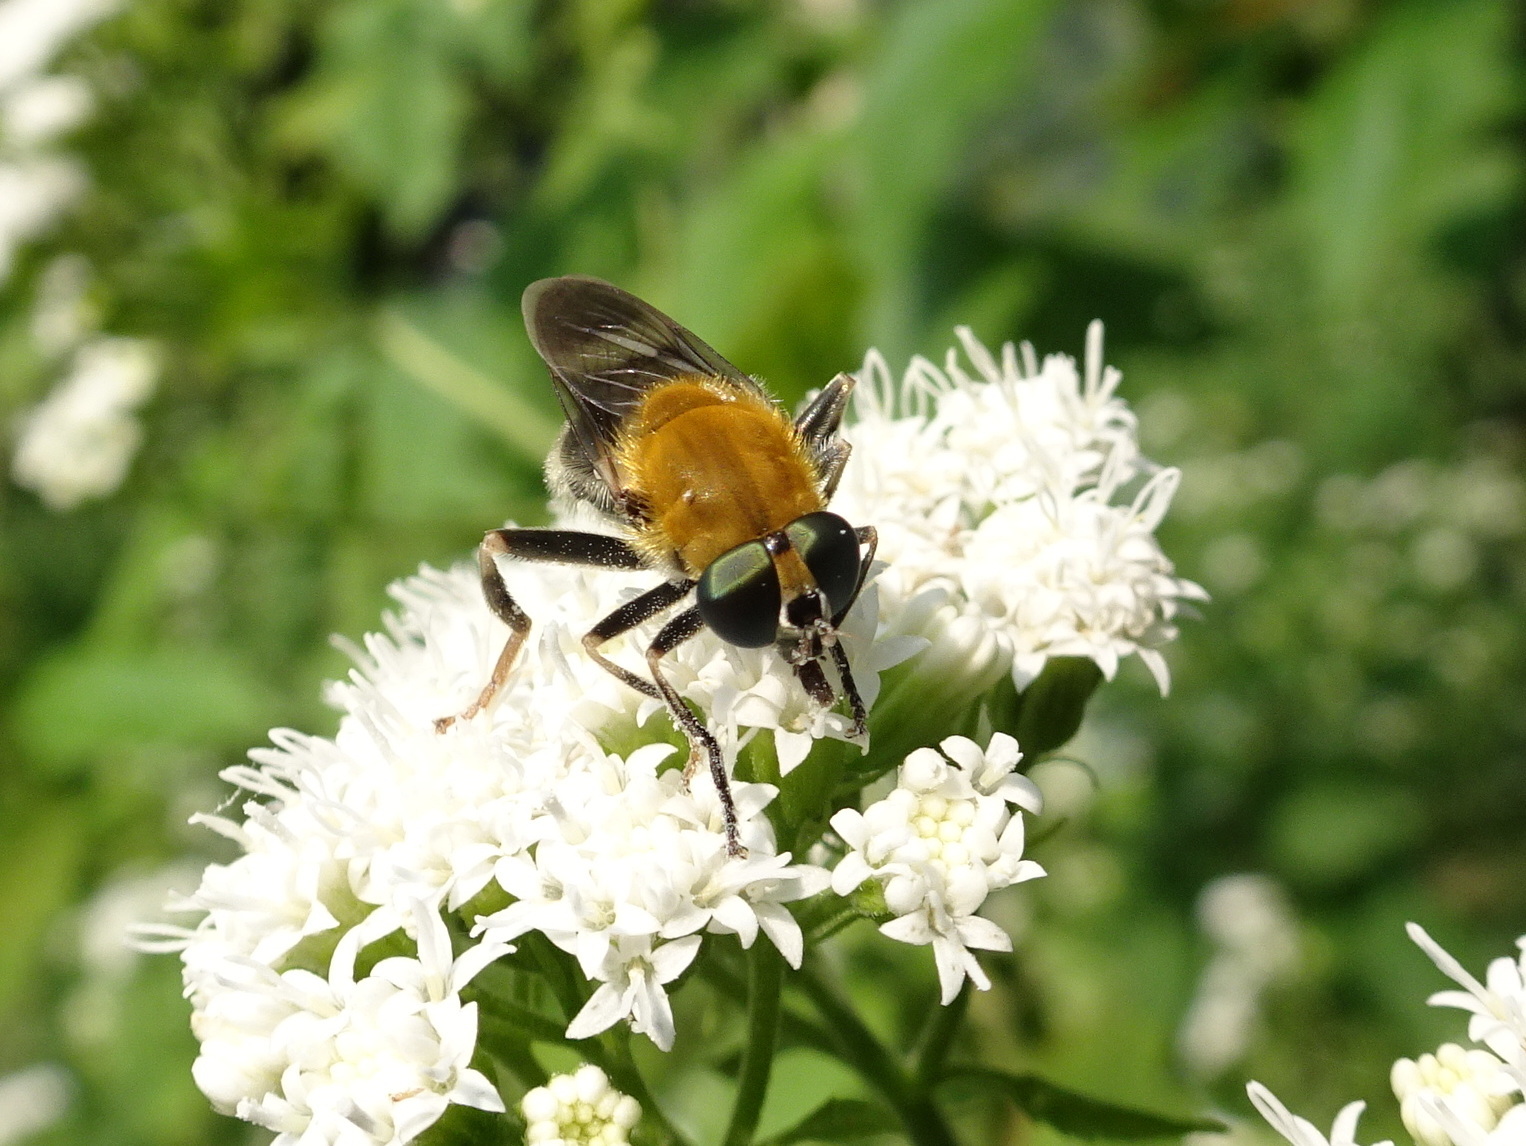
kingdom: Animalia
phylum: Arthropoda
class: Insecta
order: Diptera
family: Syrphidae
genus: Pterallastes
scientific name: Pterallastes thoracicus
